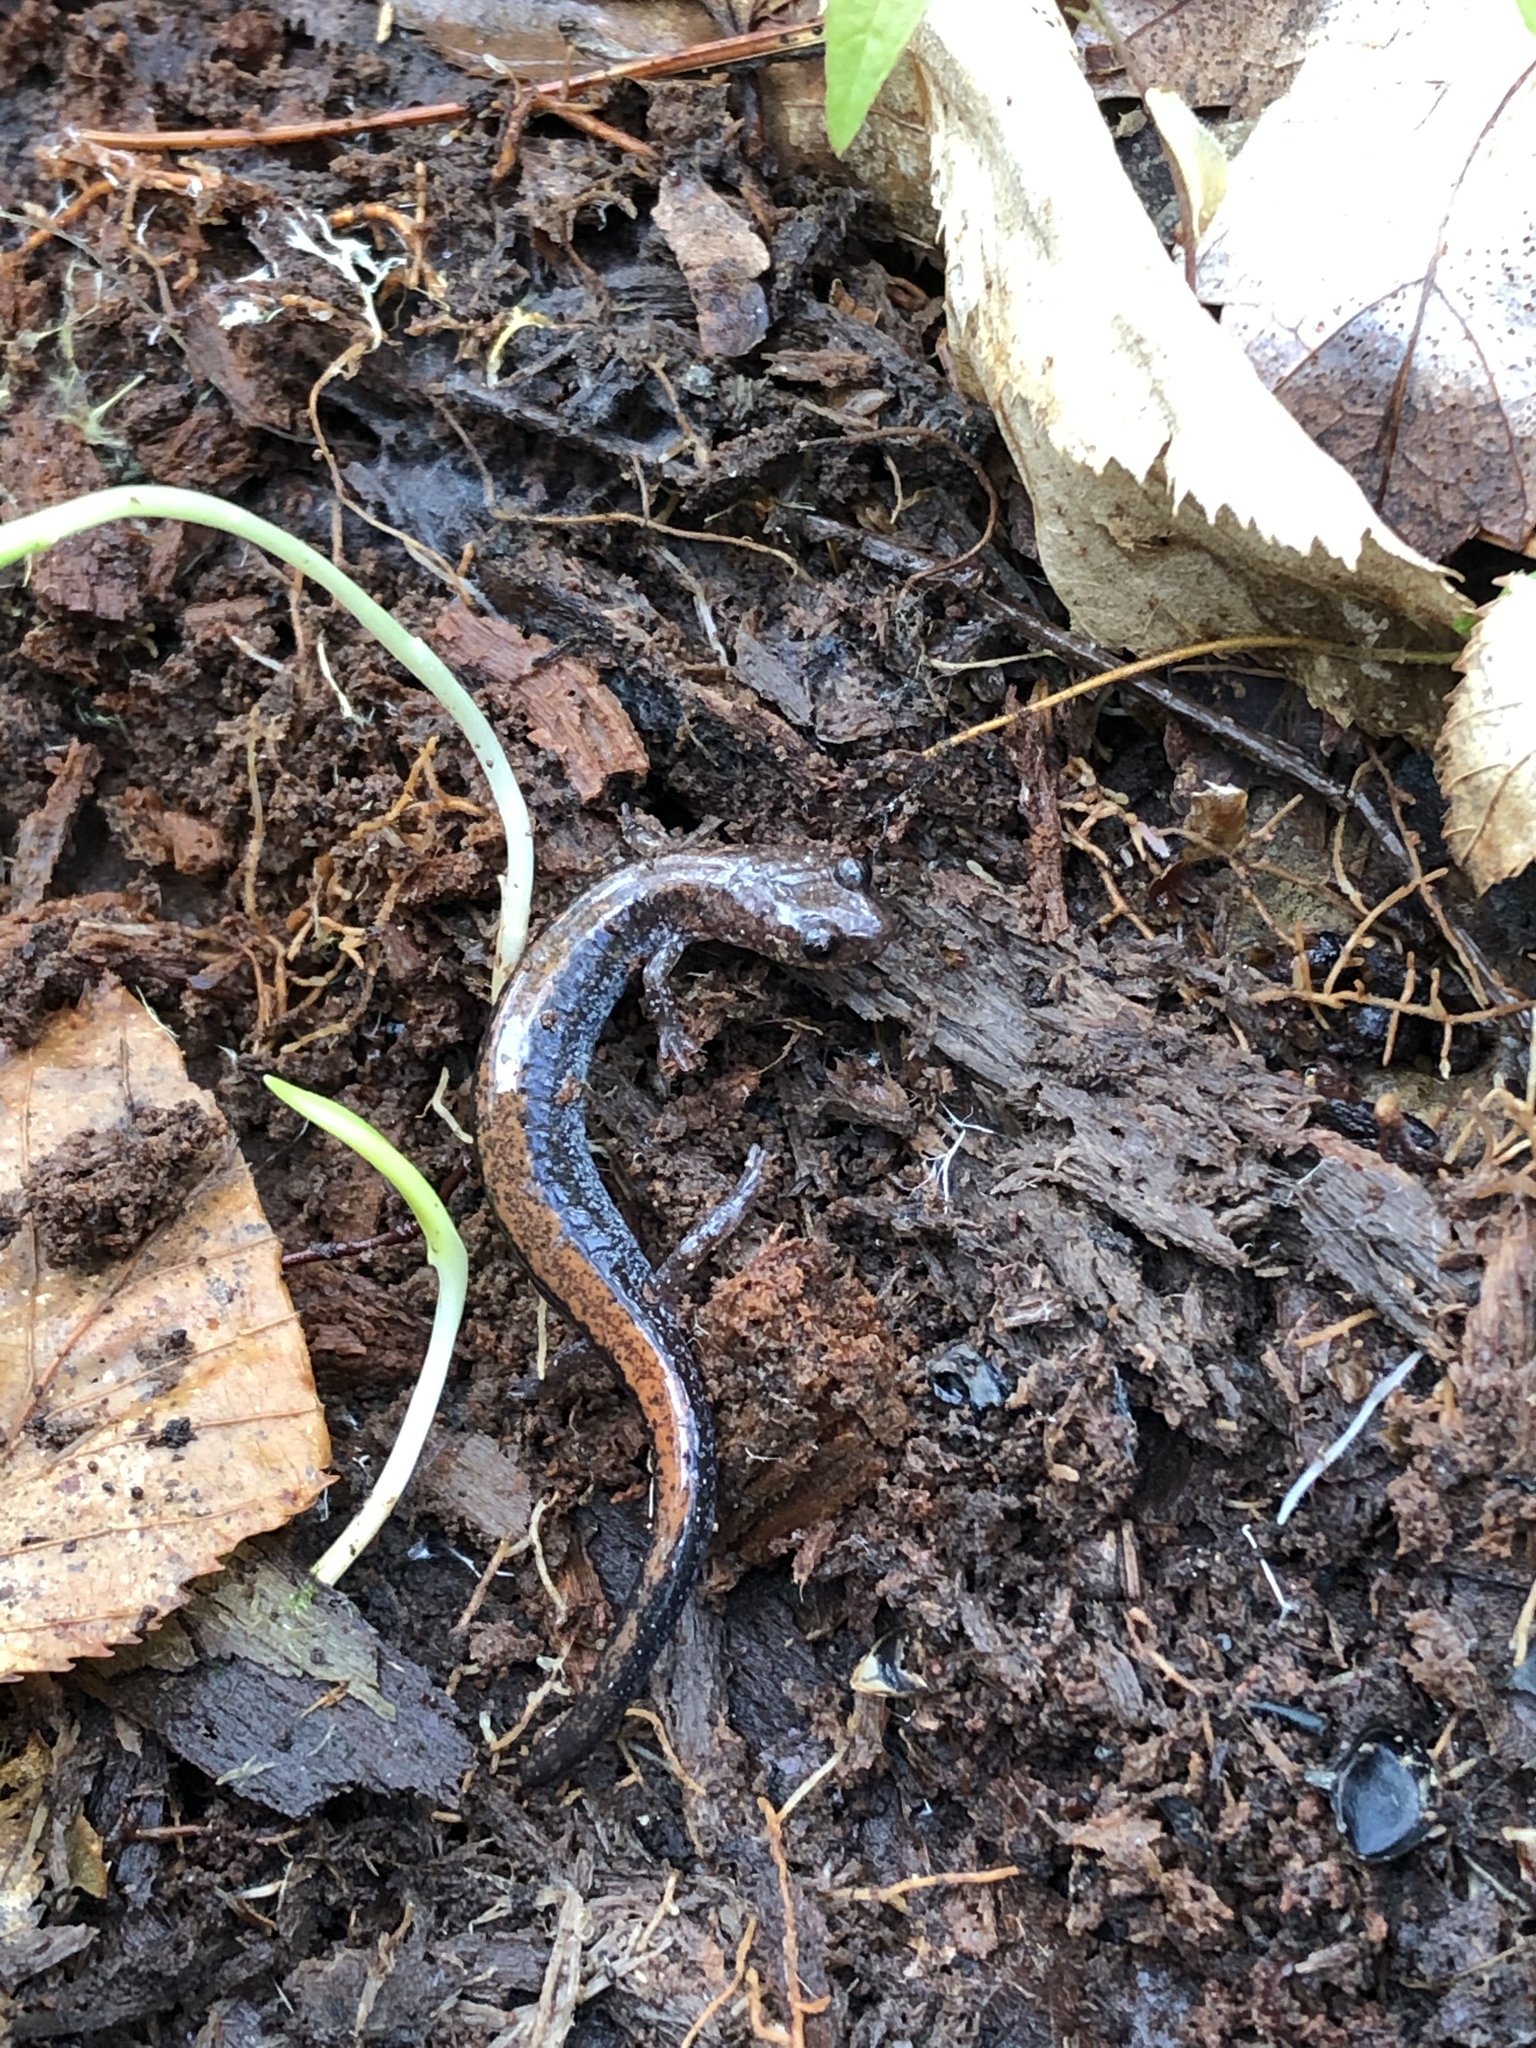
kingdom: Animalia
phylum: Chordata
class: Amphibia
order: Caudata
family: Plethodontidae
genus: Plethodon
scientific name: Plethodon cinereus
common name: Redback salamander
